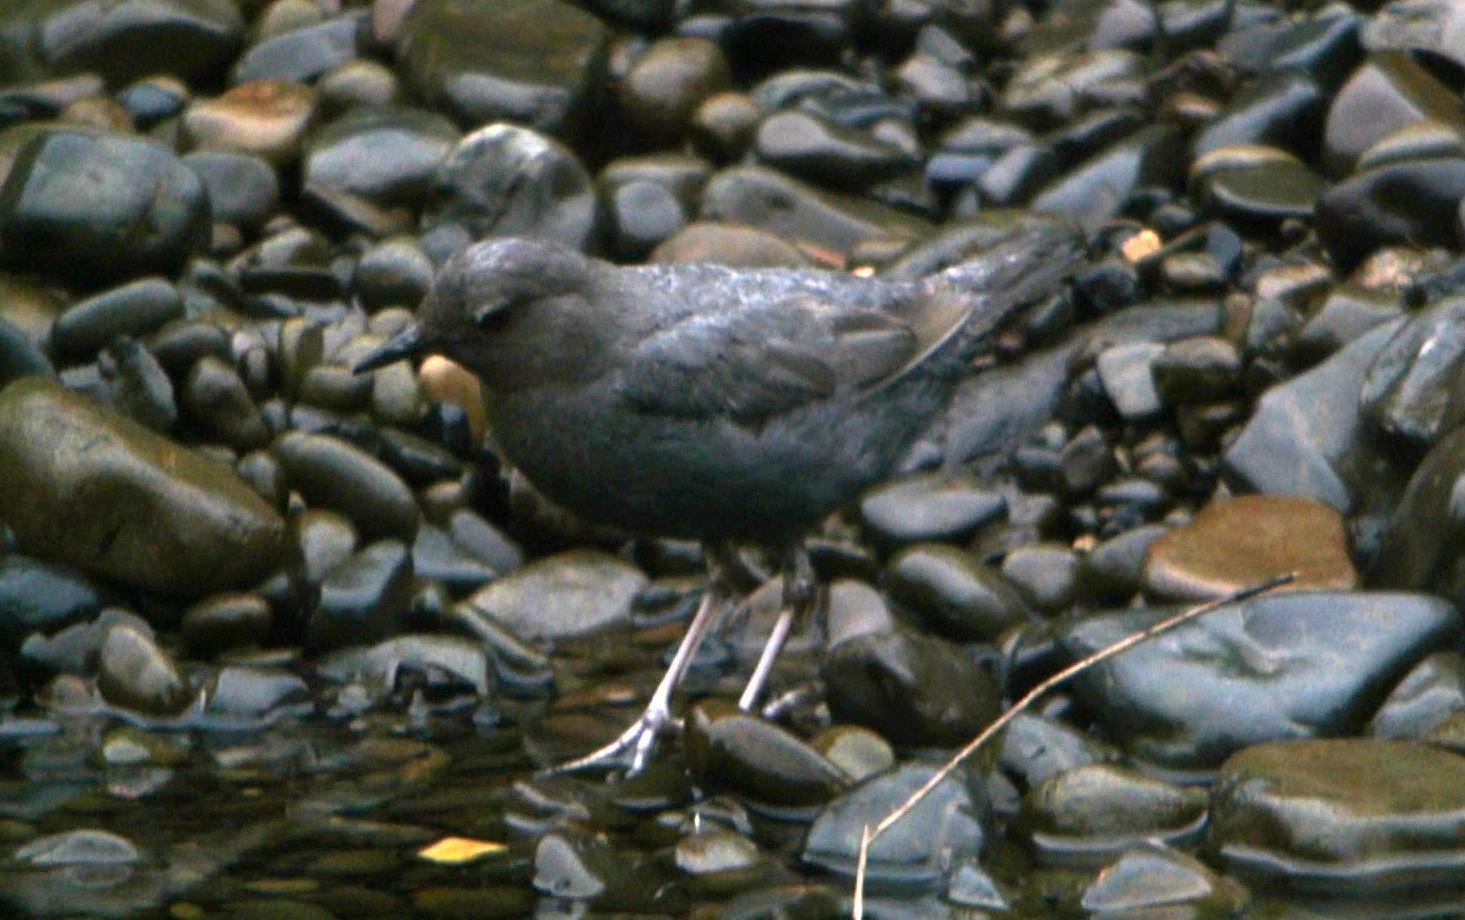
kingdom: Animalia
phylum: Chordata
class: Aves
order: Passeriformes
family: Cinclidae
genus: Cinclus
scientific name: Cinclus mexicanus
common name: American dipper
